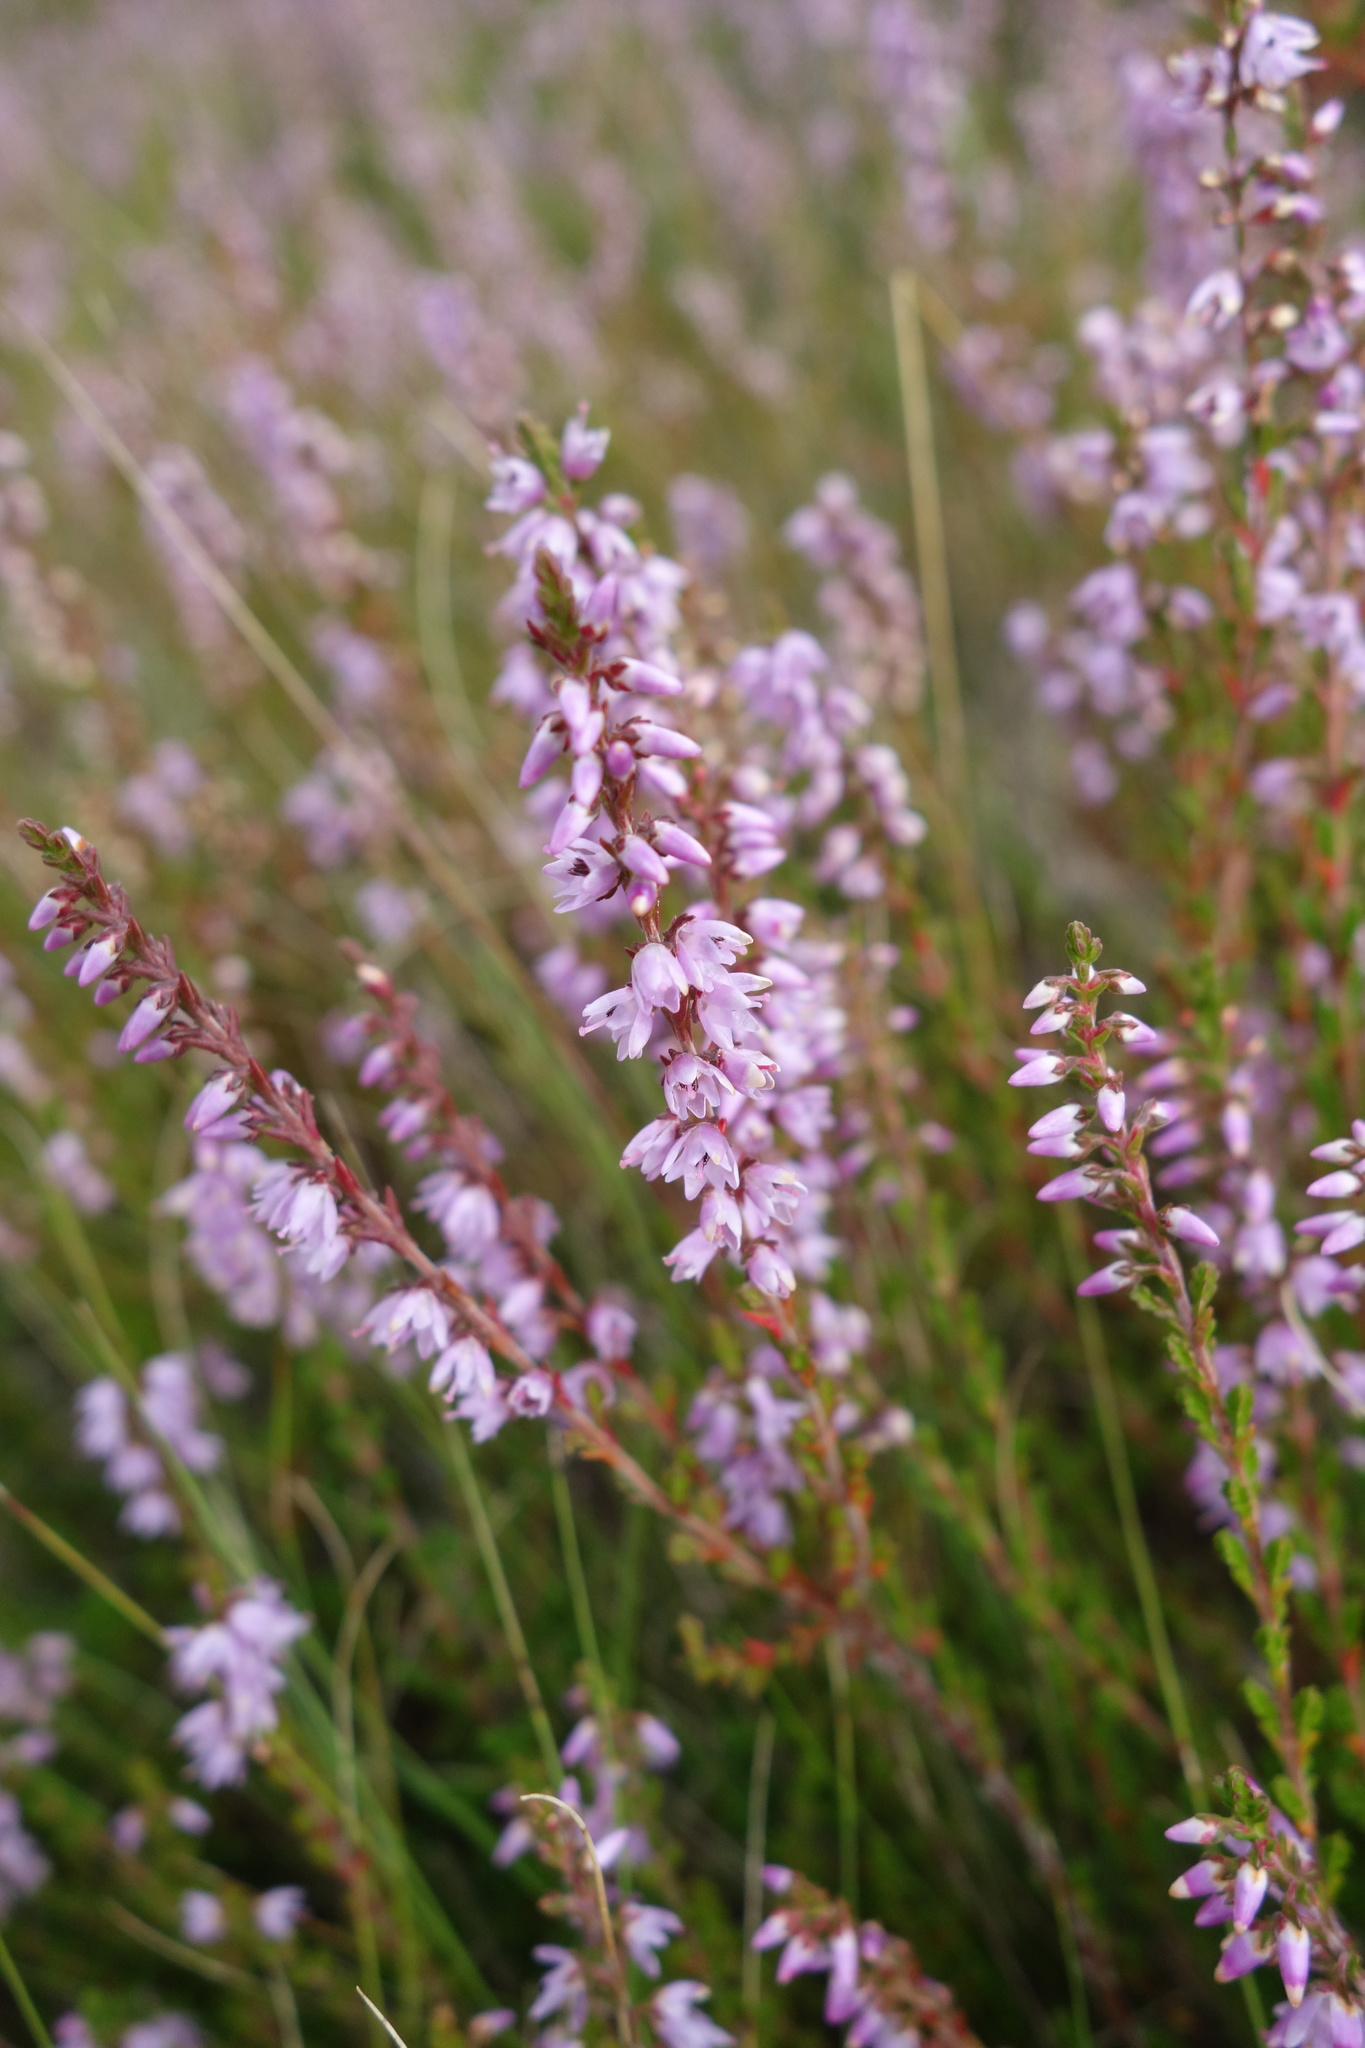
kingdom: Plantae
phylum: Tracheophyta
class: Magnoliopsida
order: Ericales
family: Ericaceae
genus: Calluna
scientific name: Calluna vulgaris
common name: Heather
